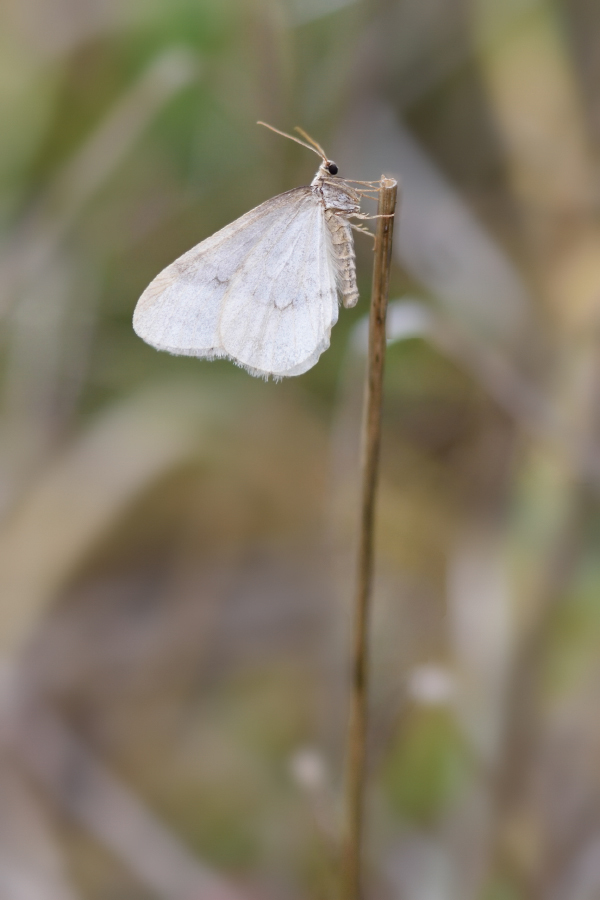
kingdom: Animalia
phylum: Arthropoda
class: Insecta
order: Lepidoptera
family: Geometridae
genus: Operophtera
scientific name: Operophtera fagata
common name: Northern winter moth
